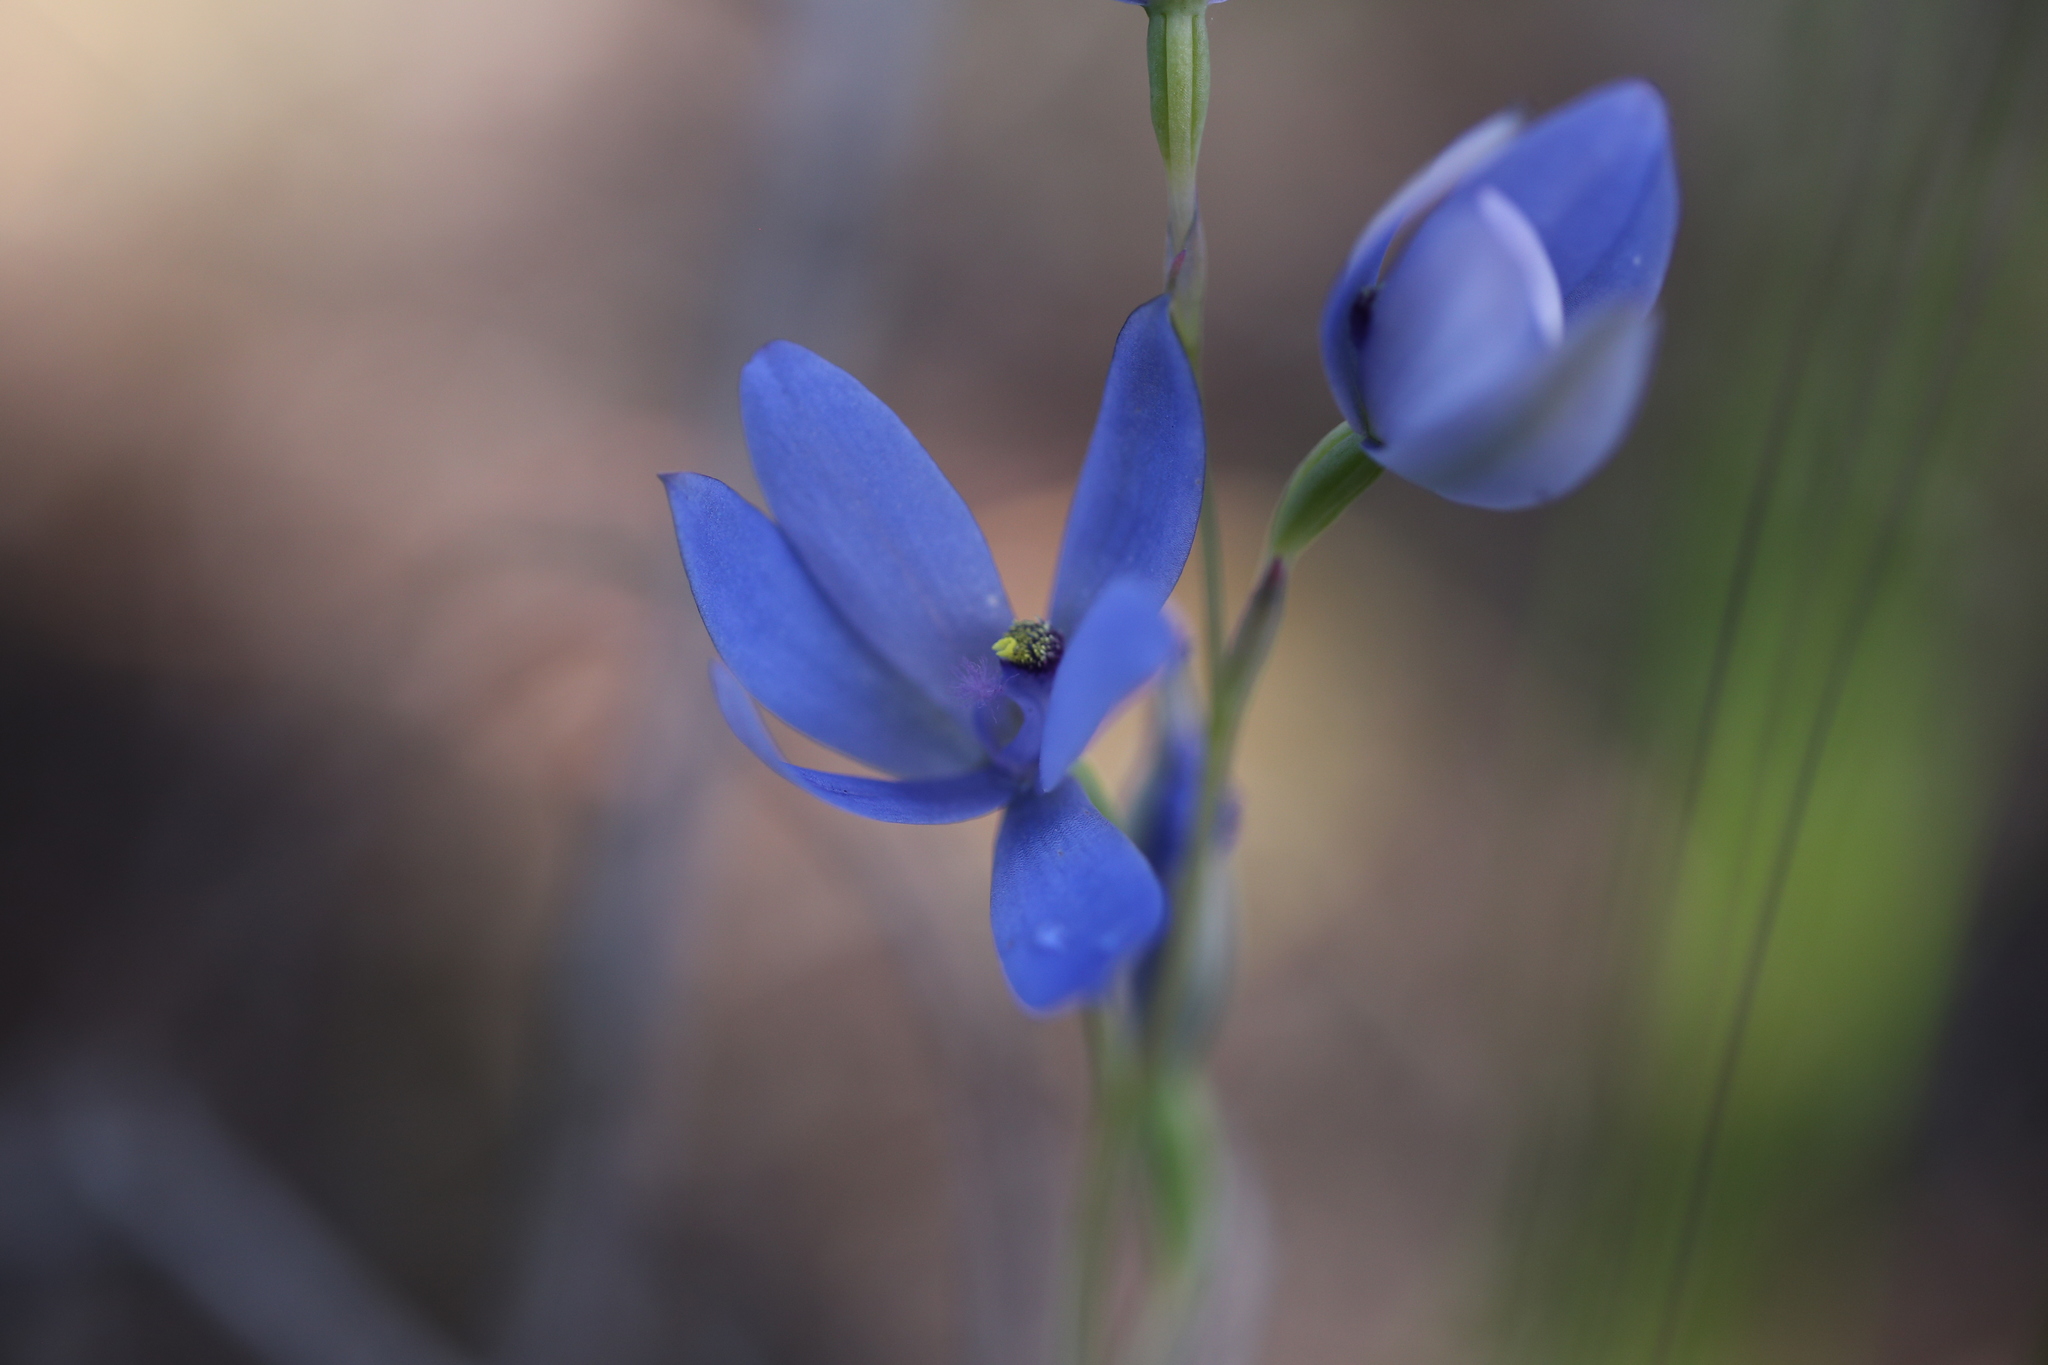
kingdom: Plantae
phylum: Tracheophyta
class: Liliopsida
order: Asparagales
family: Orchidaceae
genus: Thelymitra
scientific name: Thelymitra crinita
